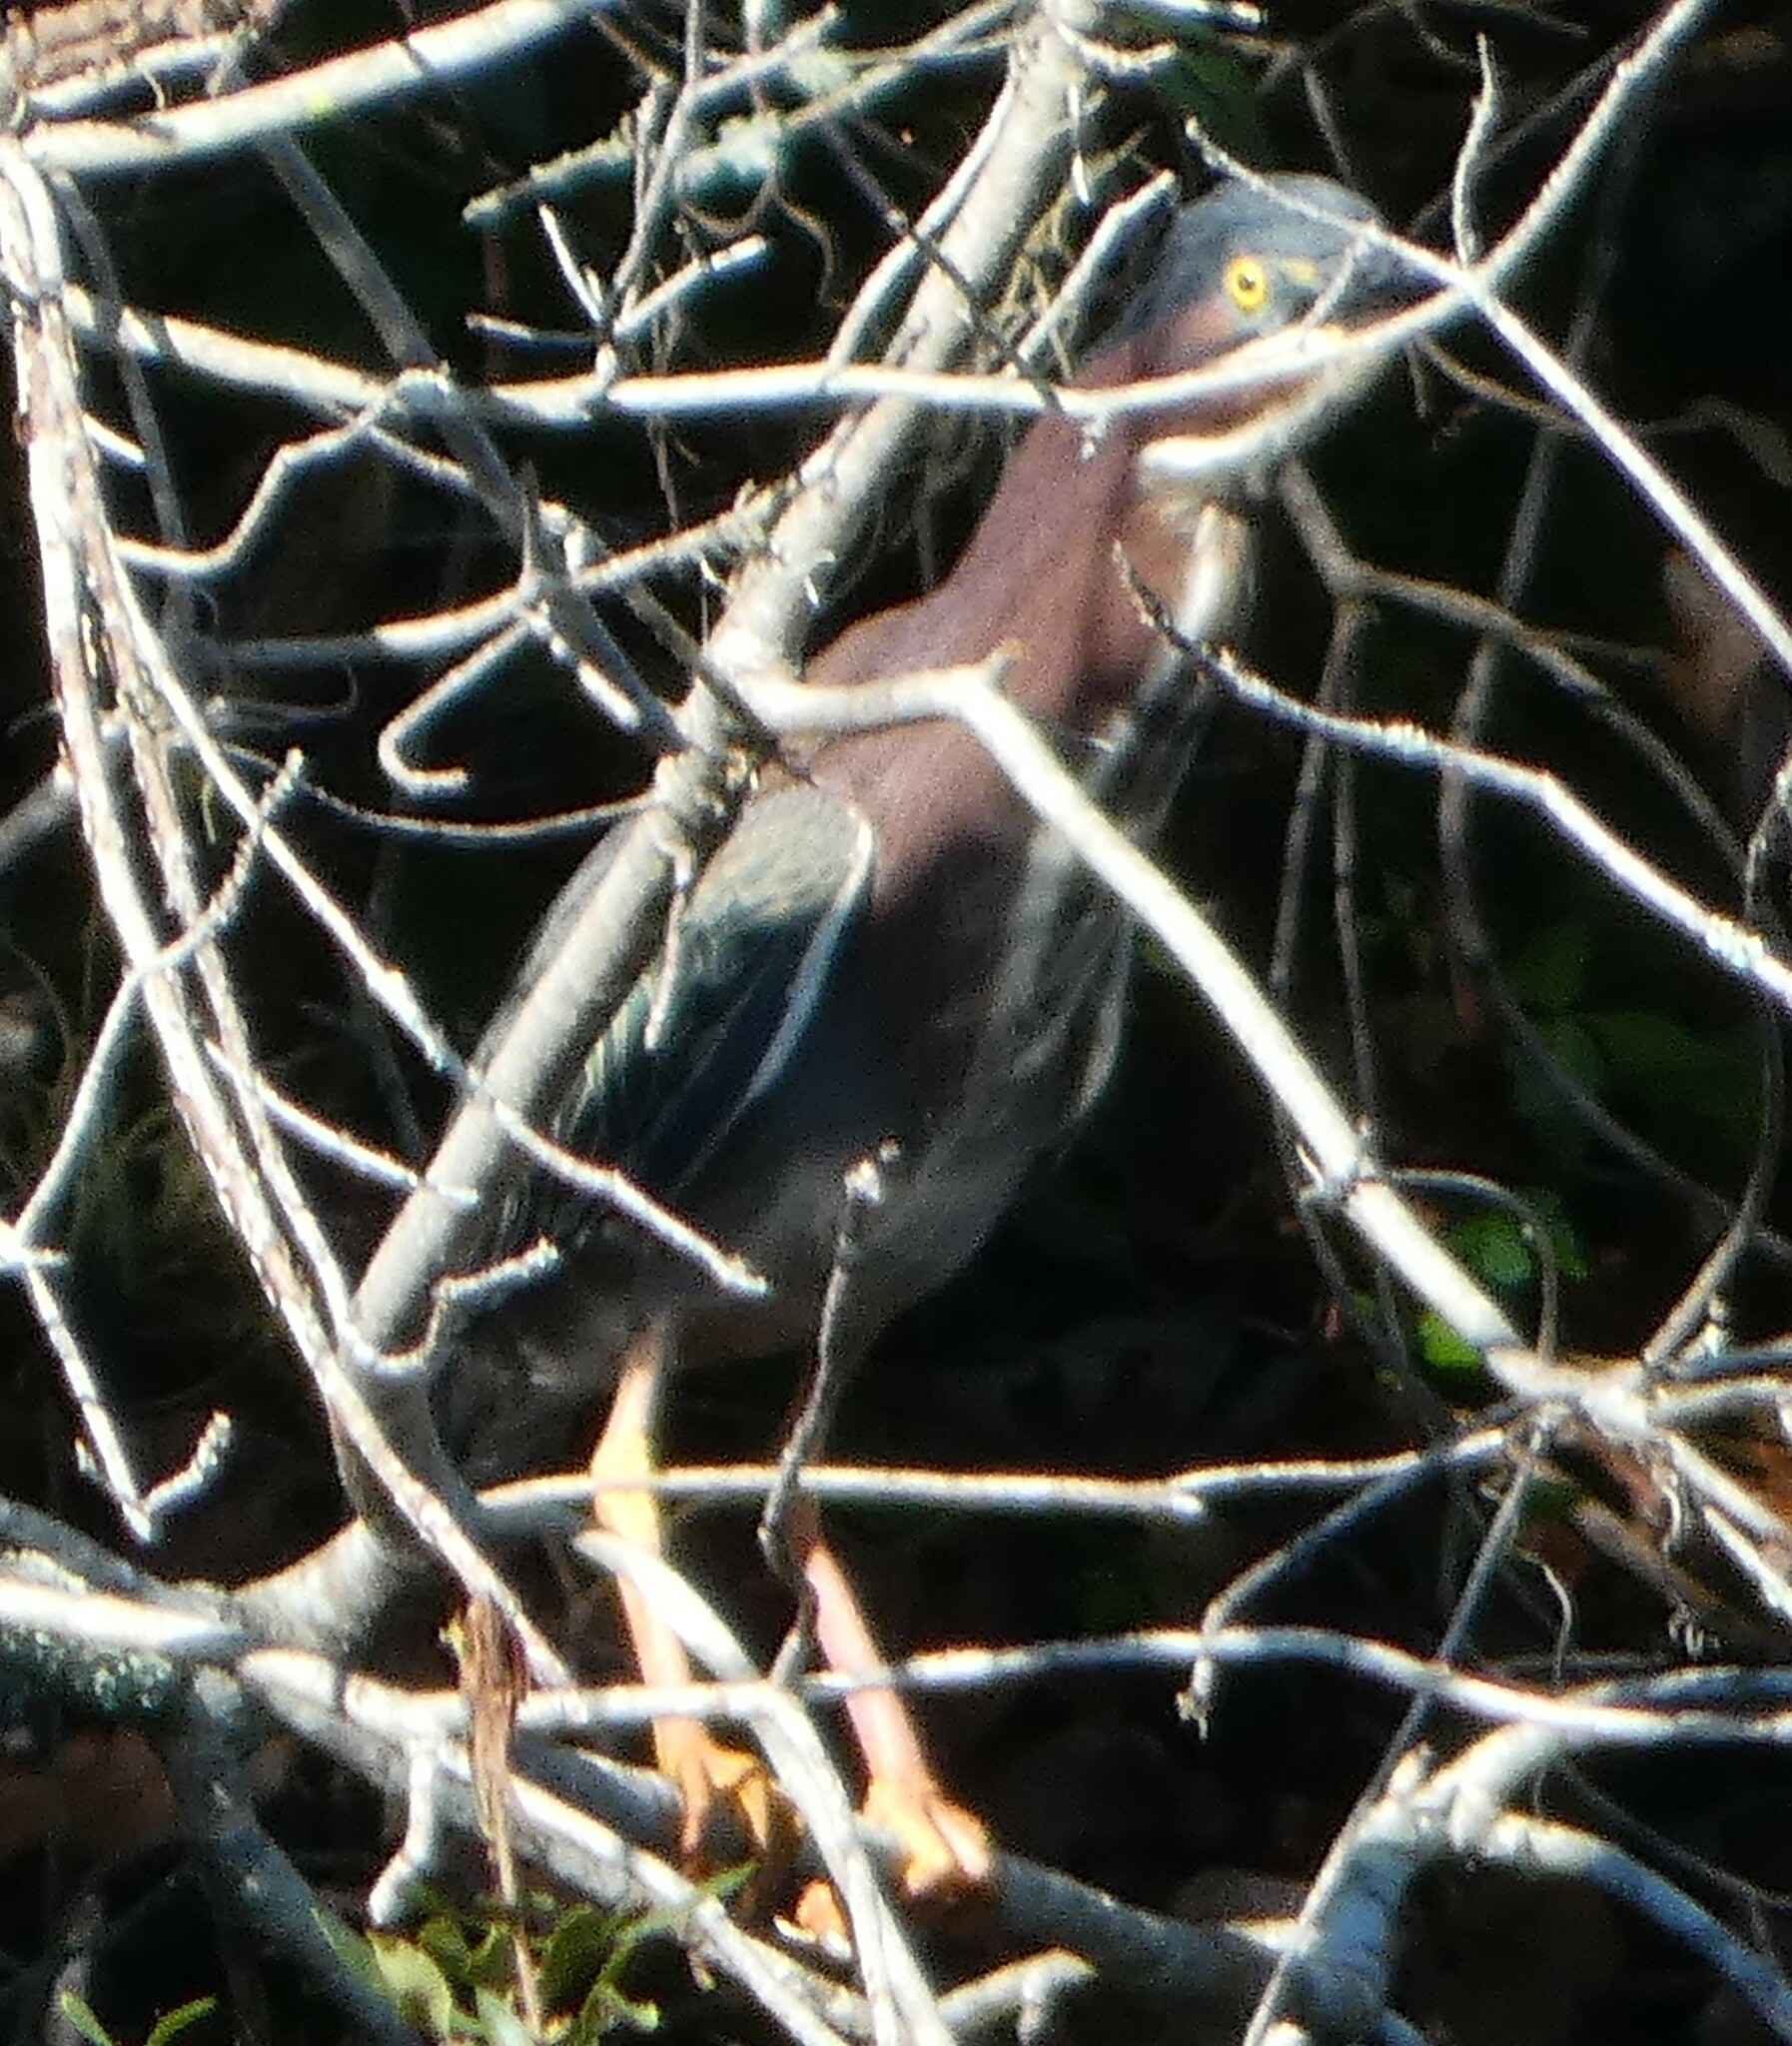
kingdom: Animalia
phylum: Chordata
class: Aves
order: Pelecaniformes
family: Ardeidae
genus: Butorides
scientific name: Butorides virescens
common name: Green heron
